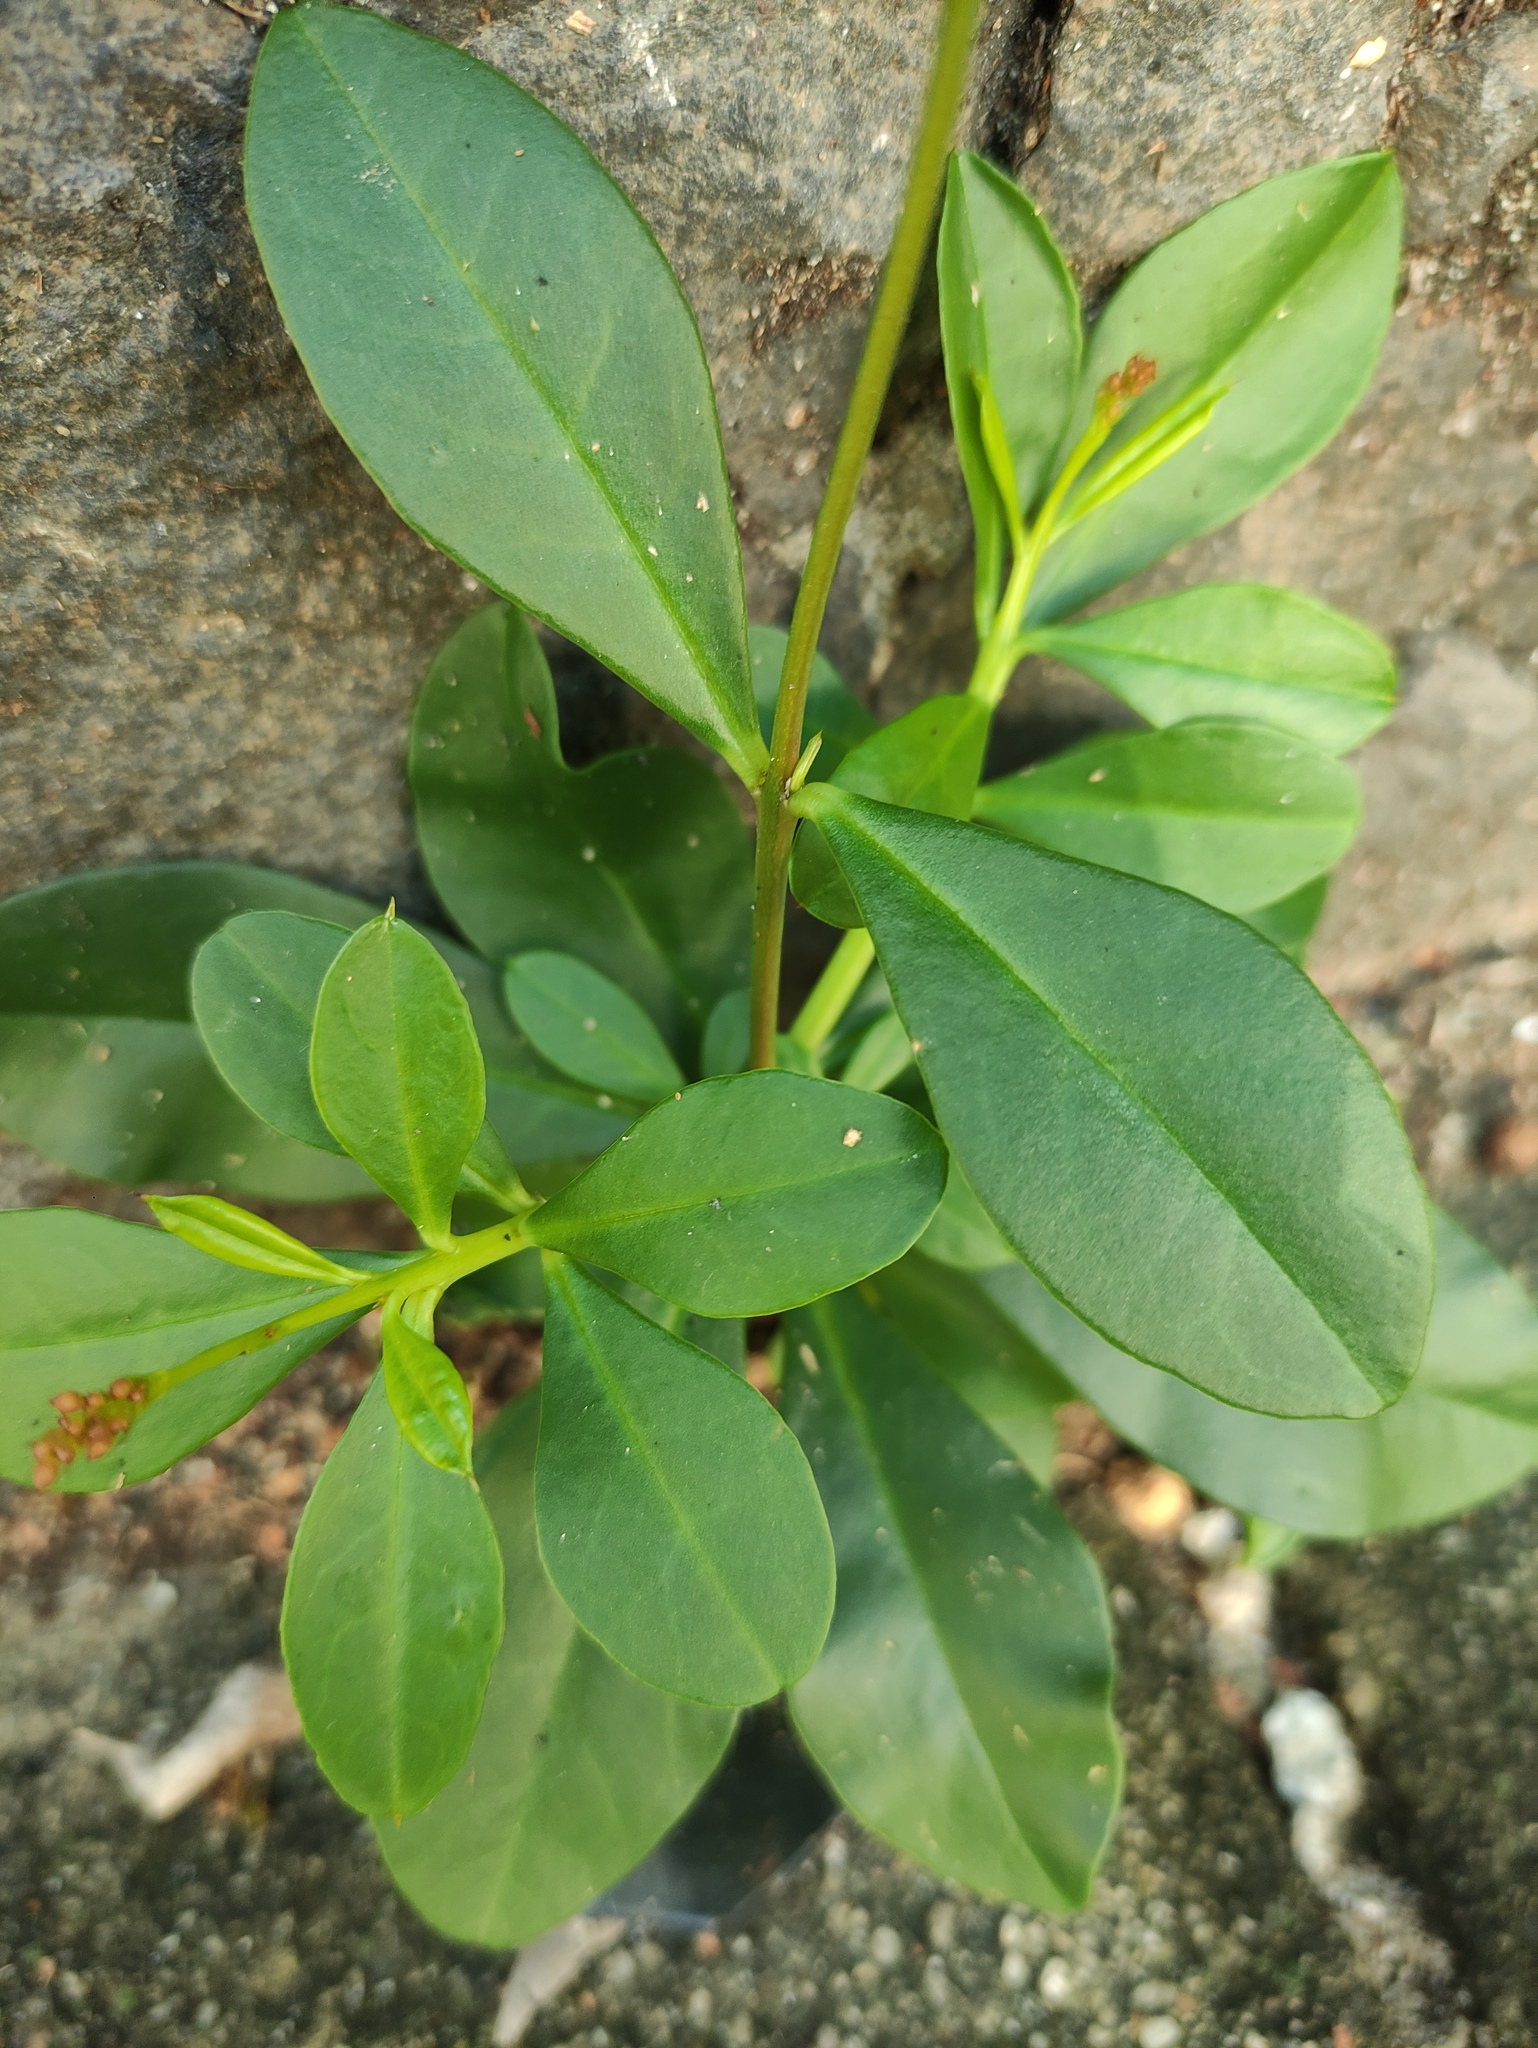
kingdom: Plantae
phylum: Tracheophyta
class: Magnoliopsida
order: Caryophyllales
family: Talinaceae
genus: Talinum
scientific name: Talinum paniculatum
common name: Jewels of opar
